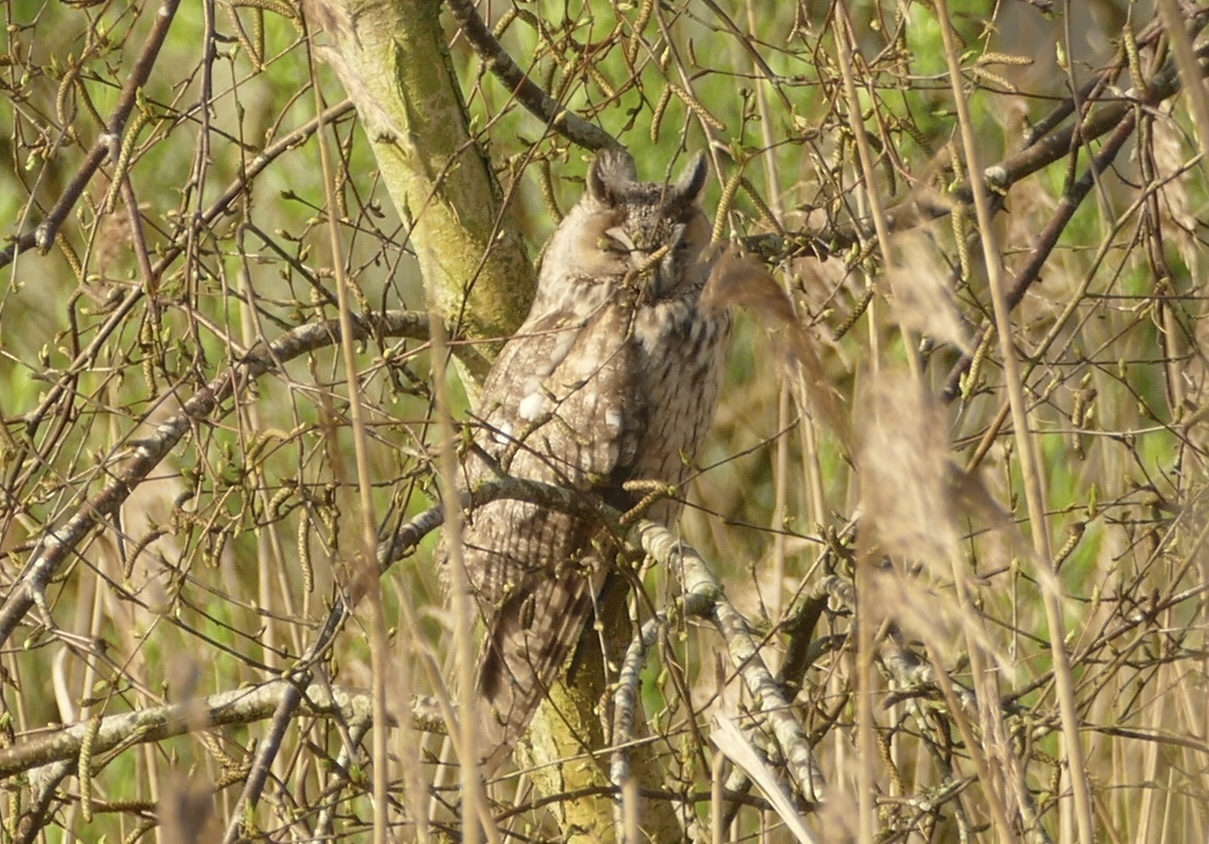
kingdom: Animalia
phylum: Chordata
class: Aves
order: Strigiformes
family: Strigidae
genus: Asio
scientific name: Asio otus
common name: Long-eared owl
